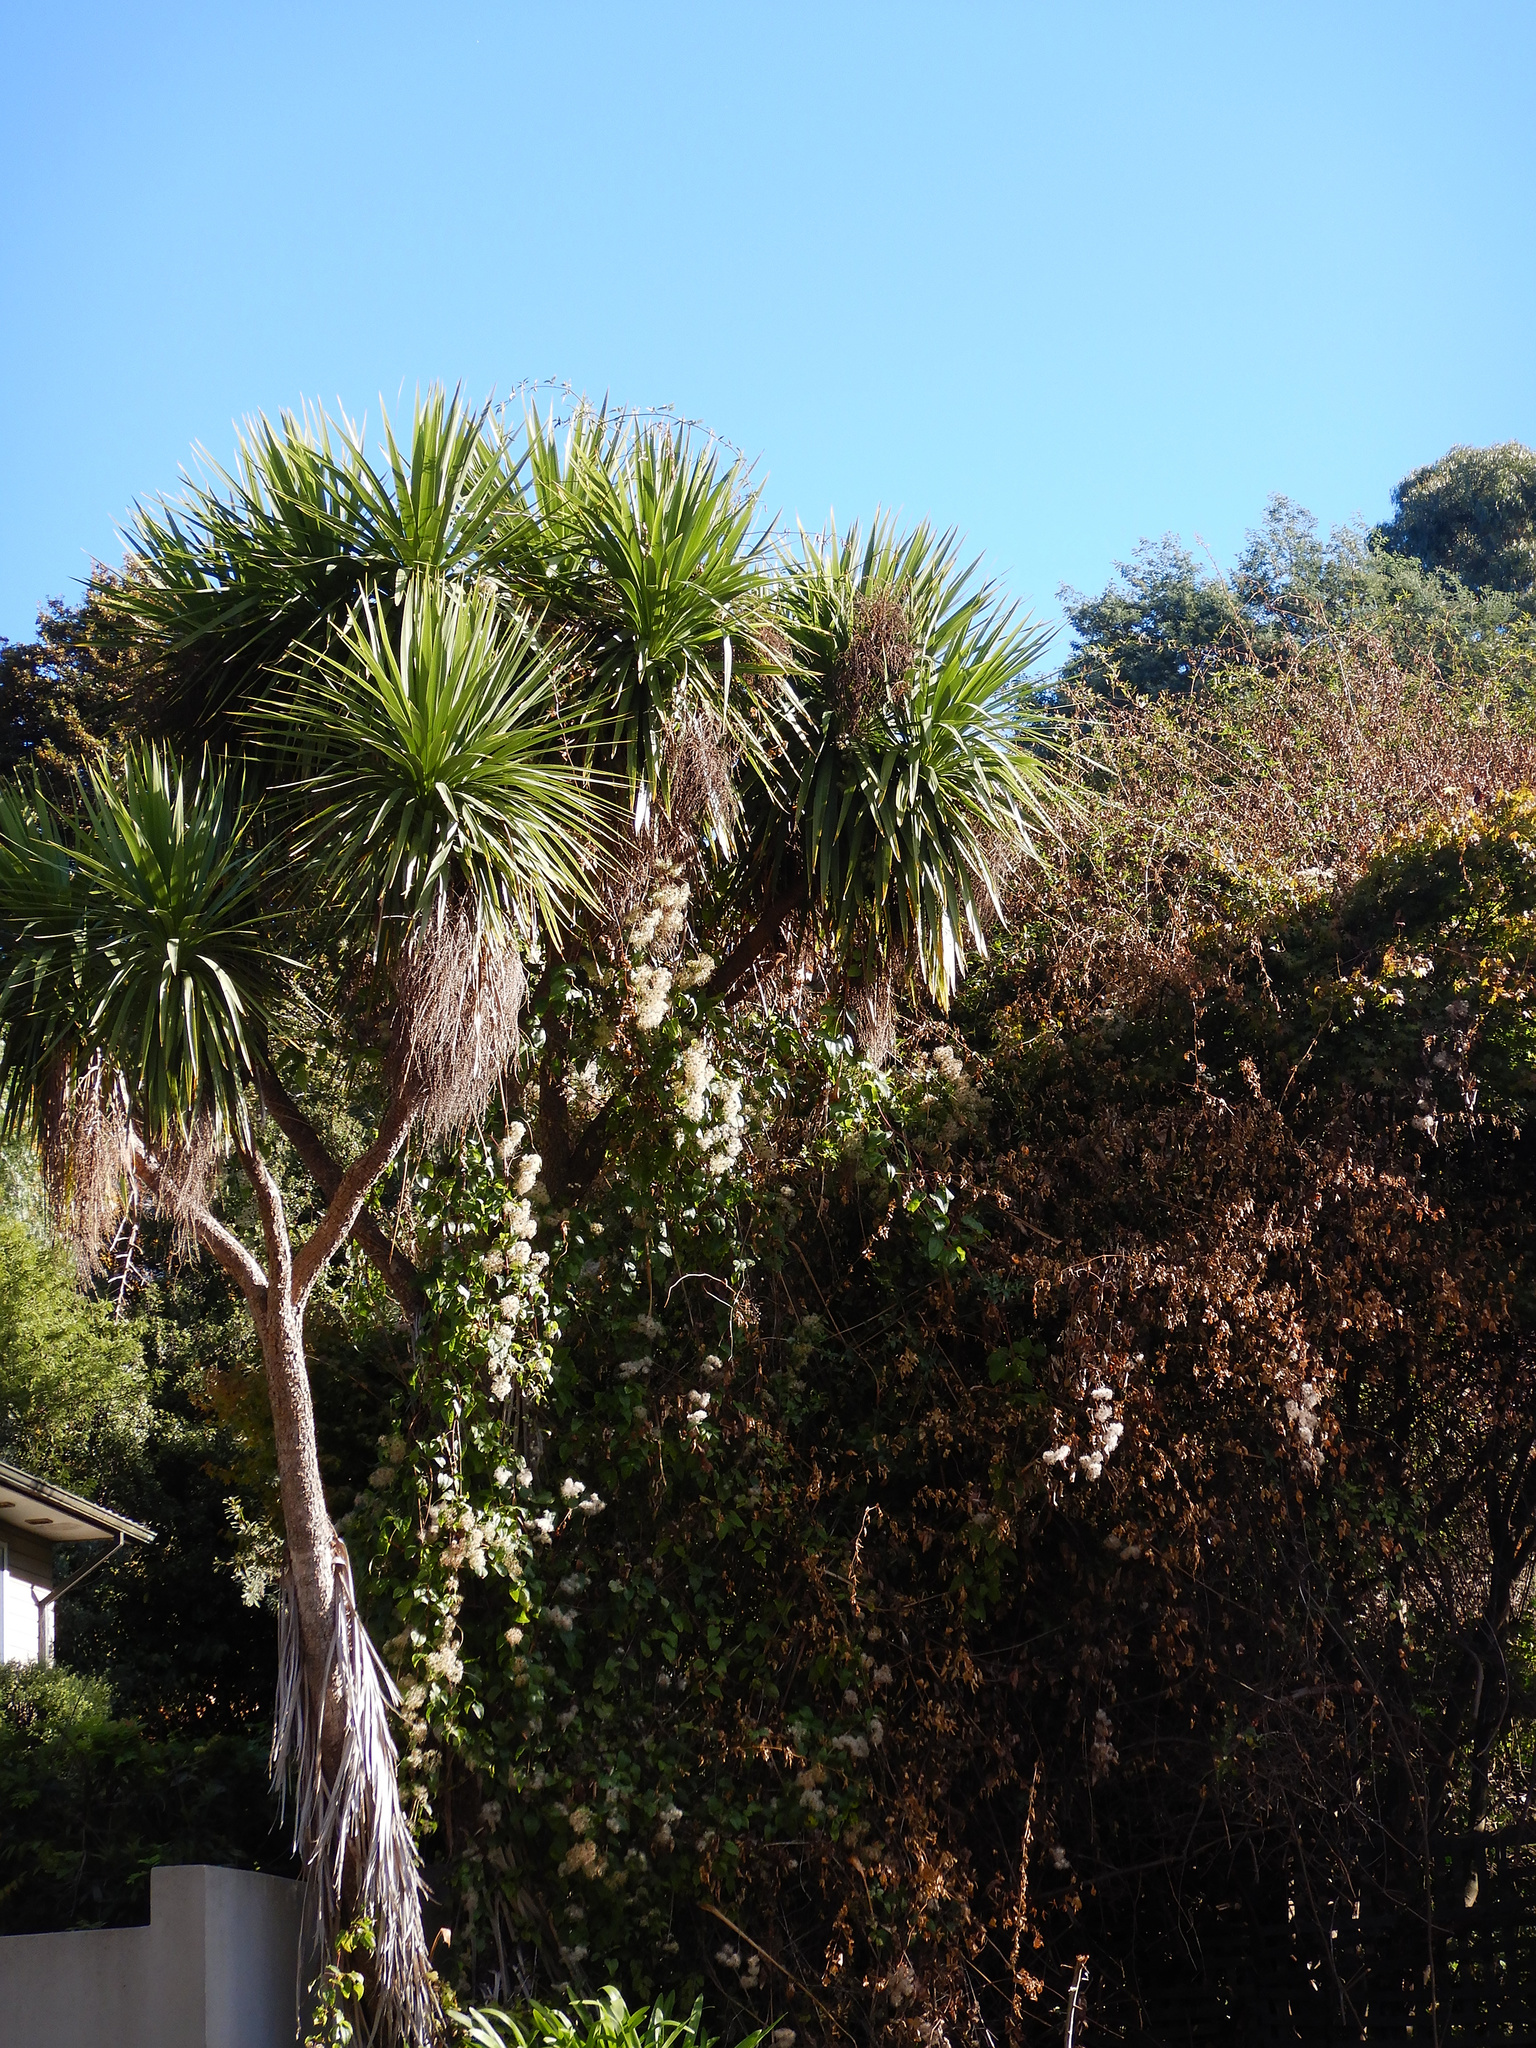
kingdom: Plantae
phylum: Tracheophyta
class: Magnoliopsida
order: Ranunculales
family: Ranunculaceae
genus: Clematis
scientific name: Clematis vitalba
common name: Evergreen clematis
